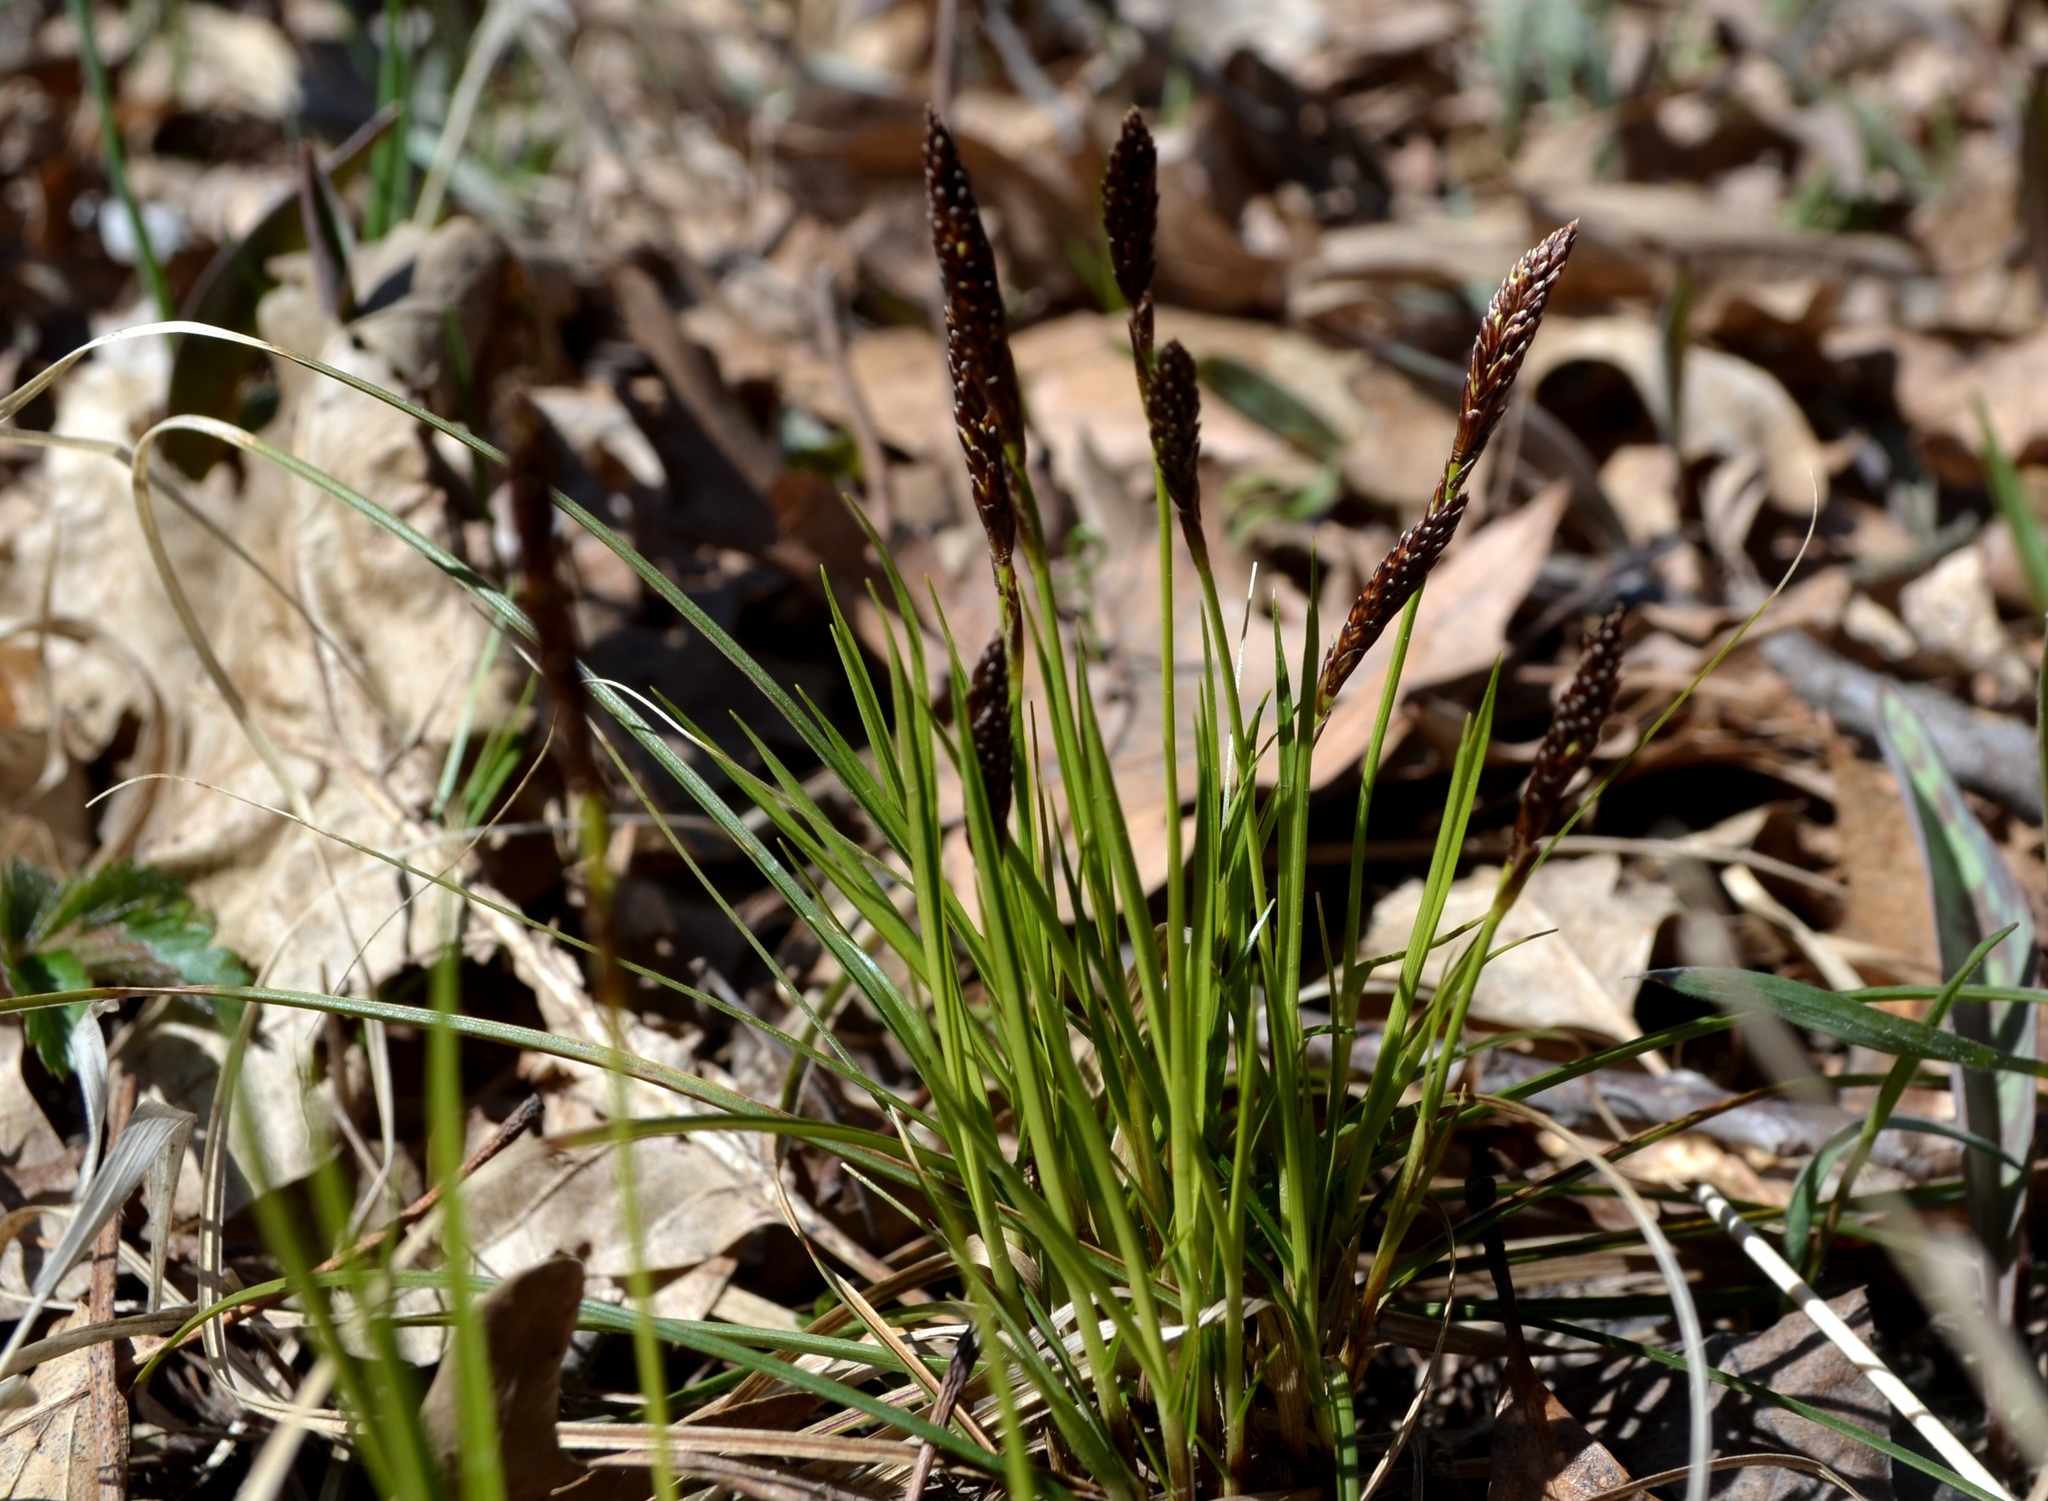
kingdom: Plantae
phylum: Tracheophyta
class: Liliopsida
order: Poales
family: Cyperaceae
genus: Carex
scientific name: Carex pensylvanica
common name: Common oak sedge
